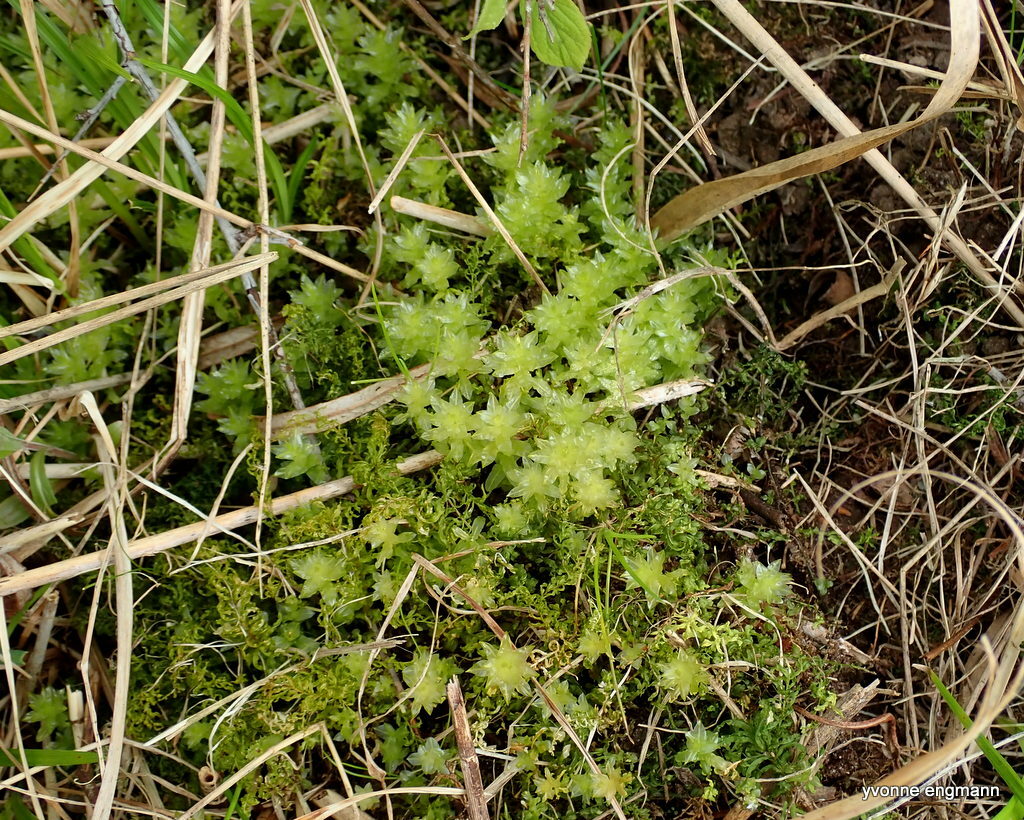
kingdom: Plantae
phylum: Bryophyta
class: Bryopsida
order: Bryales
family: Mniaceae
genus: Plagiomnium
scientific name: Plagiomnium undulatum
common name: Hart's-tongue thyme-moss
